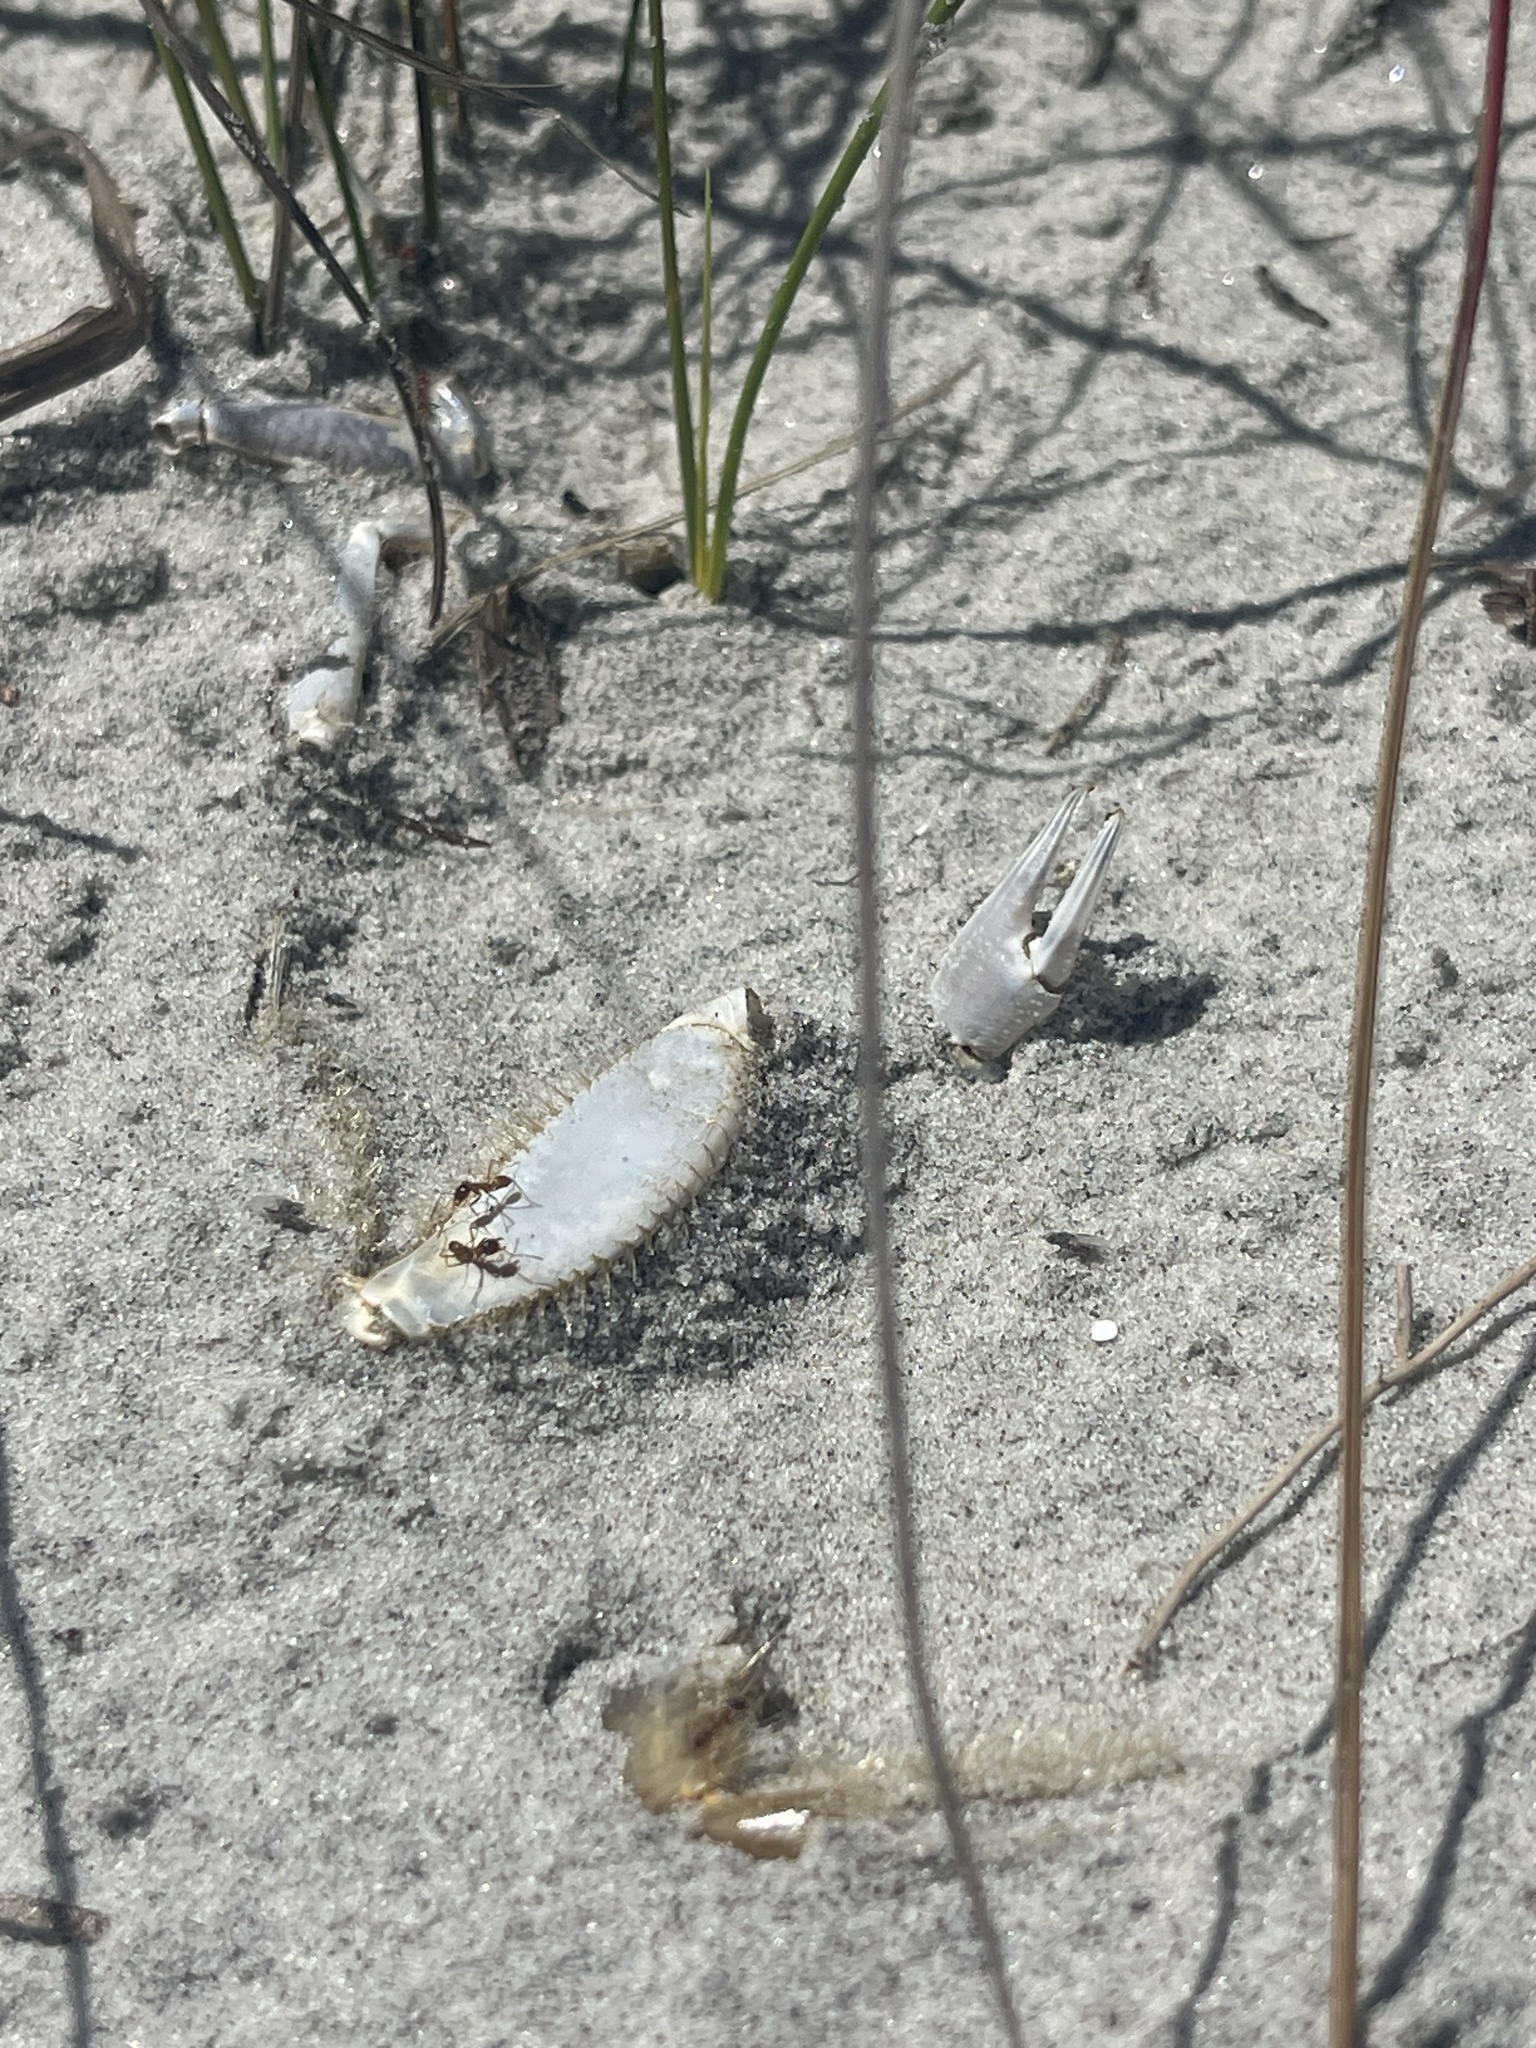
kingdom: Animalia
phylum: Arthropoda
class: Insecta
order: Hymenoptera
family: Formicidae
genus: Dorymyrmex
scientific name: Dorymyrmex bureni
